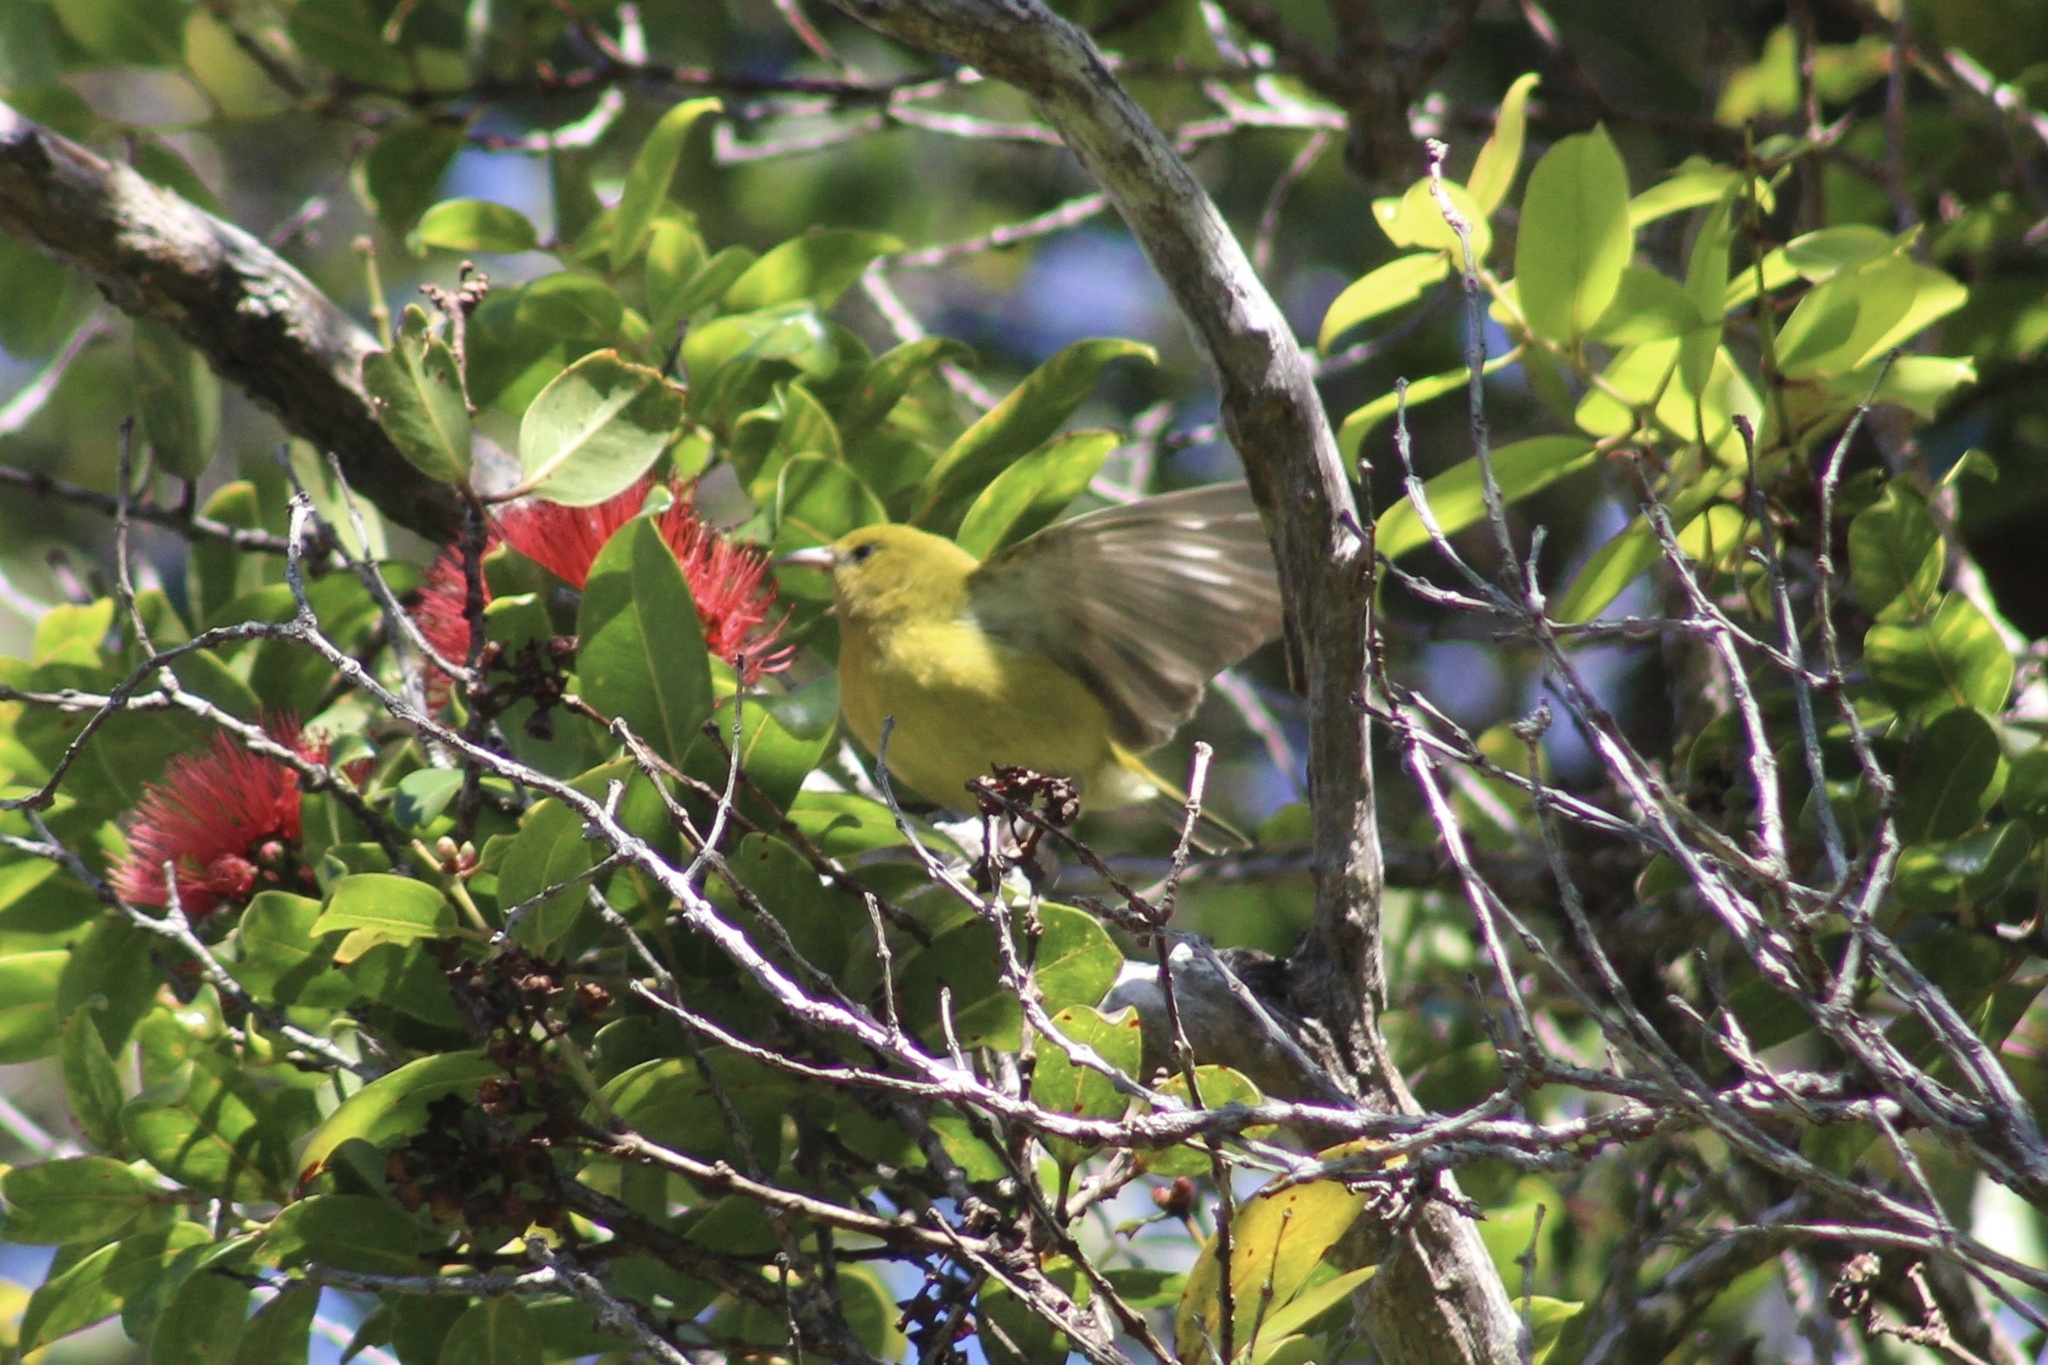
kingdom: Animalia
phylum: Chordata
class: Aves
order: Passeriformes
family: Fringillidae
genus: Chlorodrepanis
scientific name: Chlorodrepanis flava
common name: Oahu amakihi
